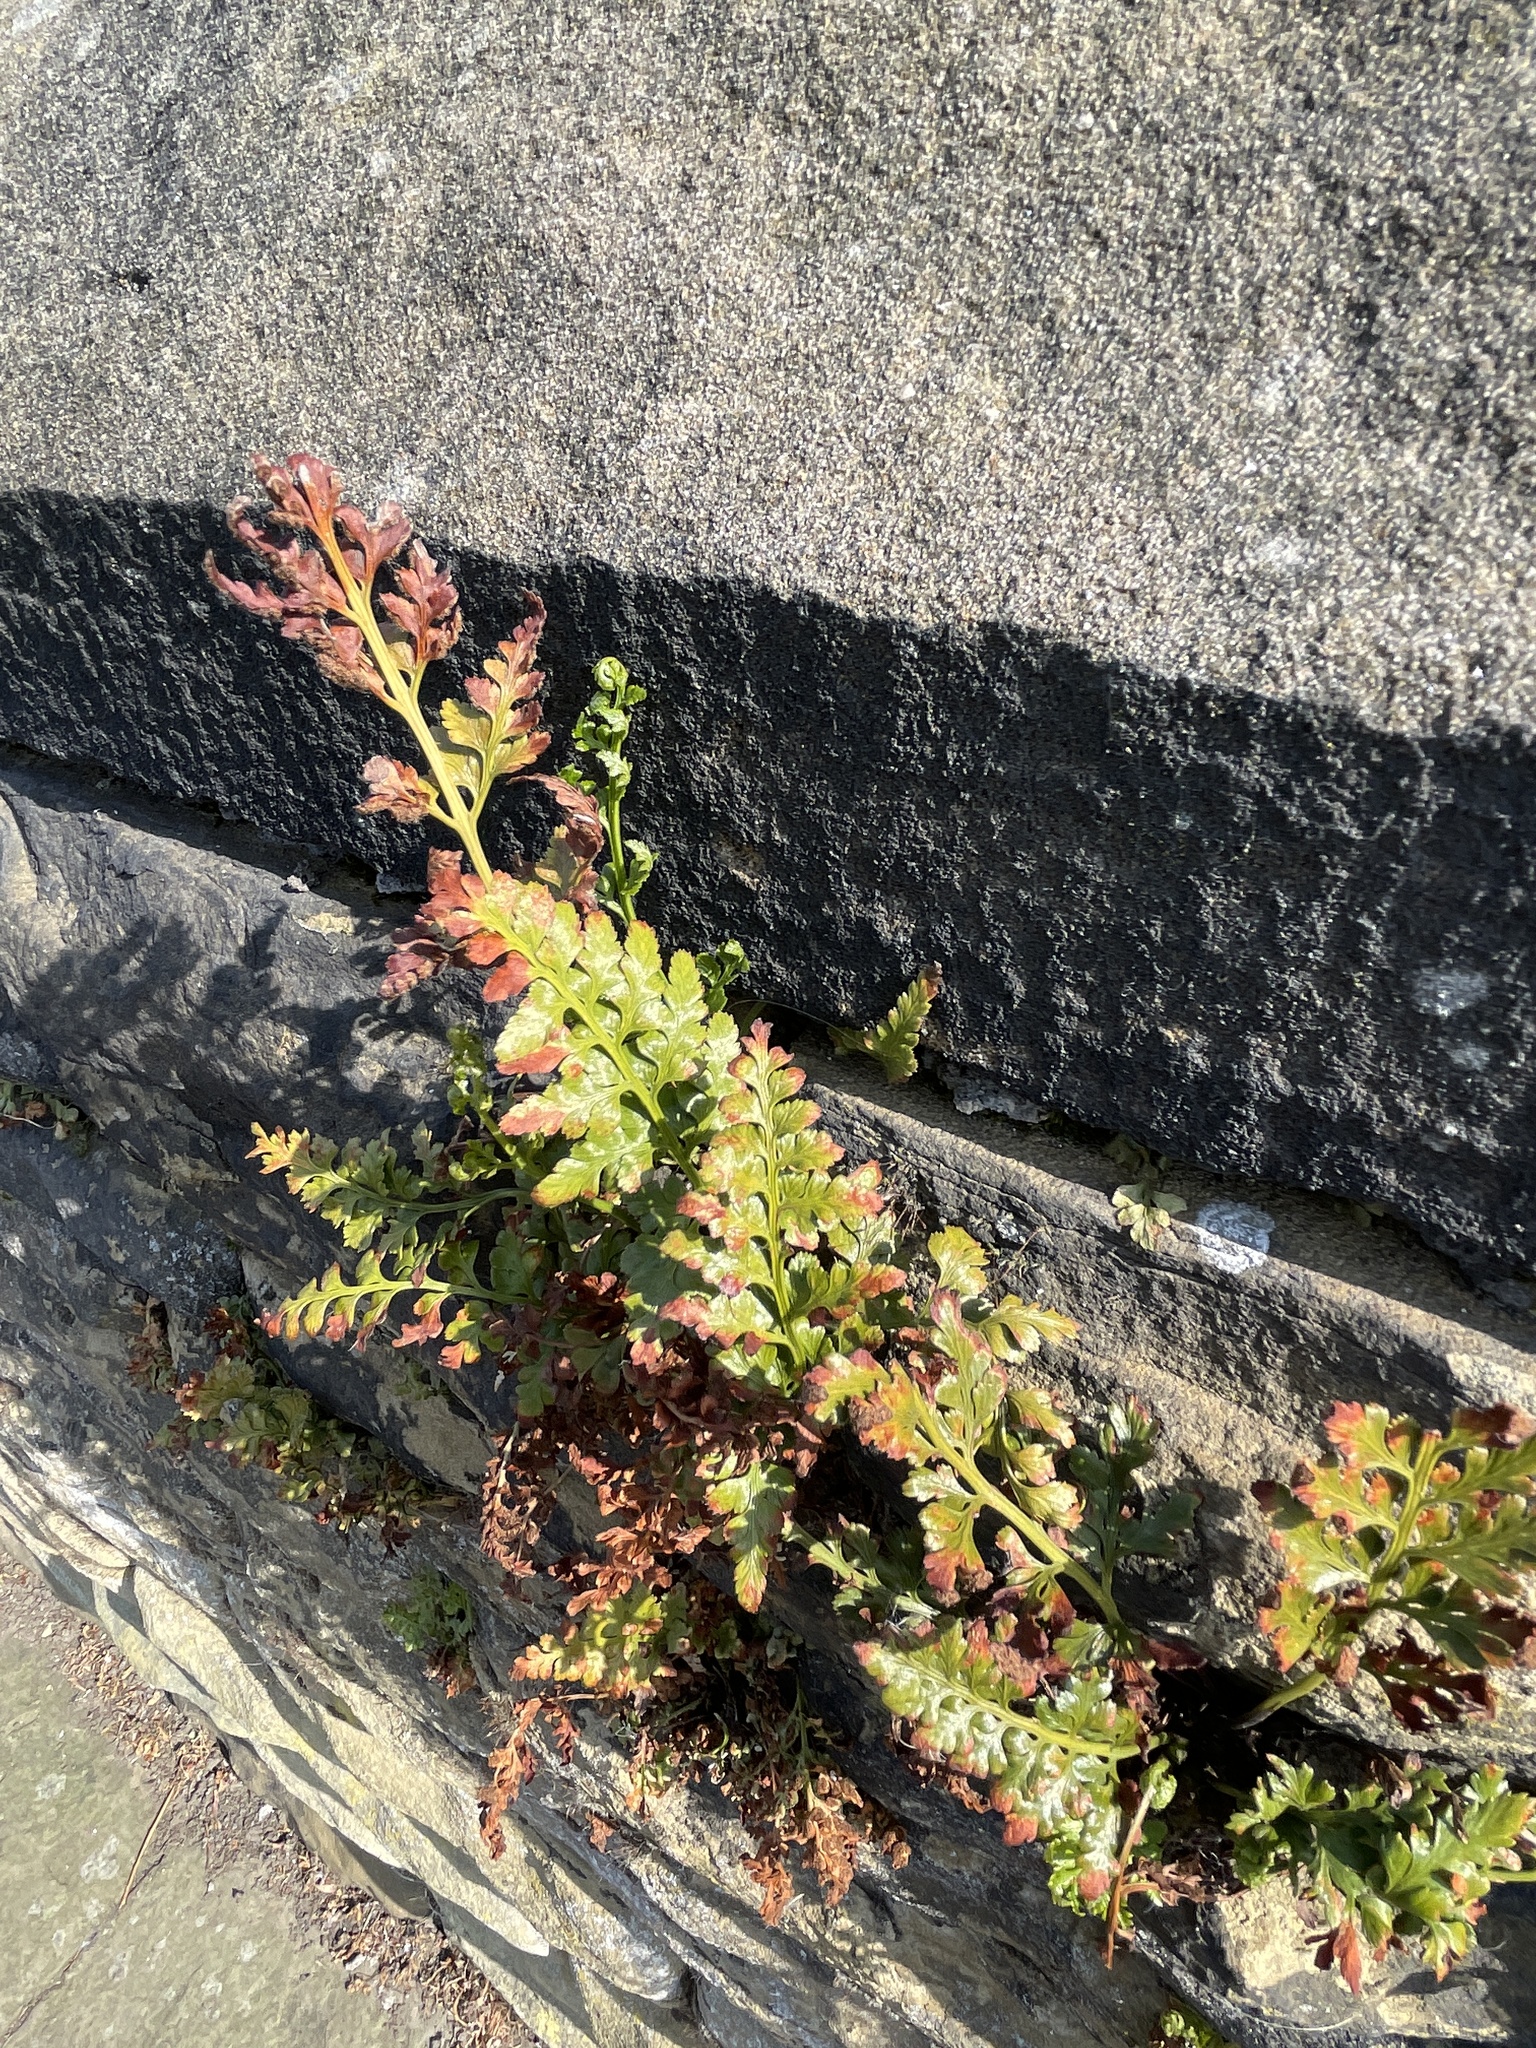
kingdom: Plantae
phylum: Tracheophyta
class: Polypodiopsida
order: Polypodiales
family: Aspleniaceae
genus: Asplenium
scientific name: Asplenium adiantum-nigrum
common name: Black spleenwort
